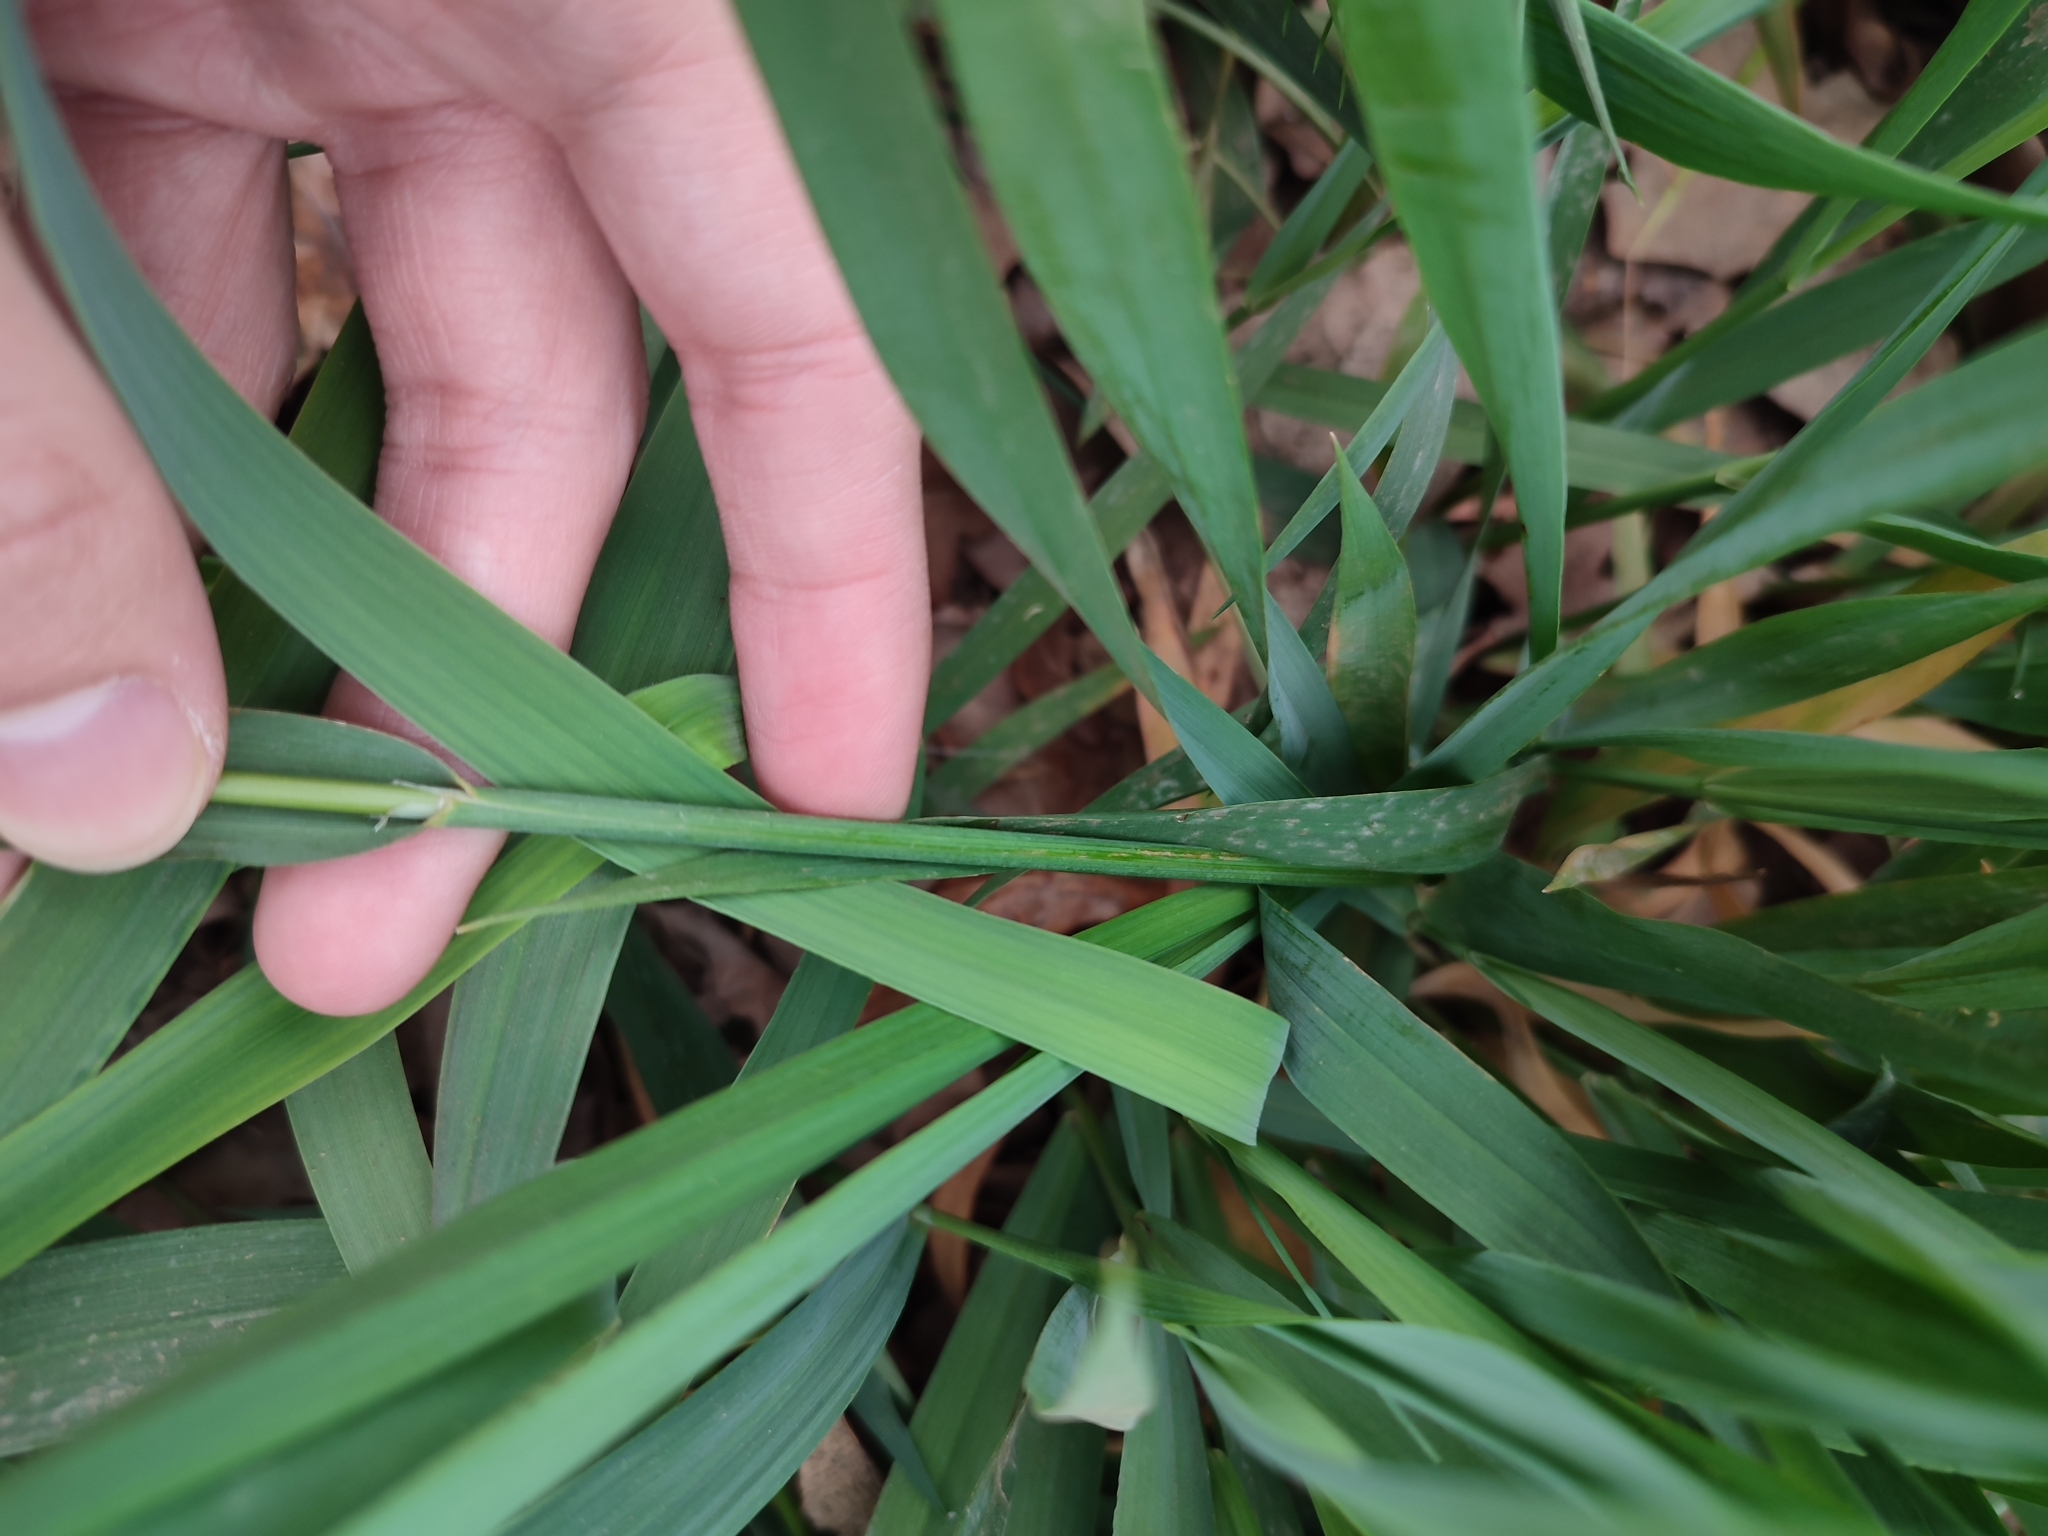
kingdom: Plantae
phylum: Tracheophyta
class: Liliopsida
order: Poales
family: Poaceae
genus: Anthoxanthum
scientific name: Anthoxanthum repens
